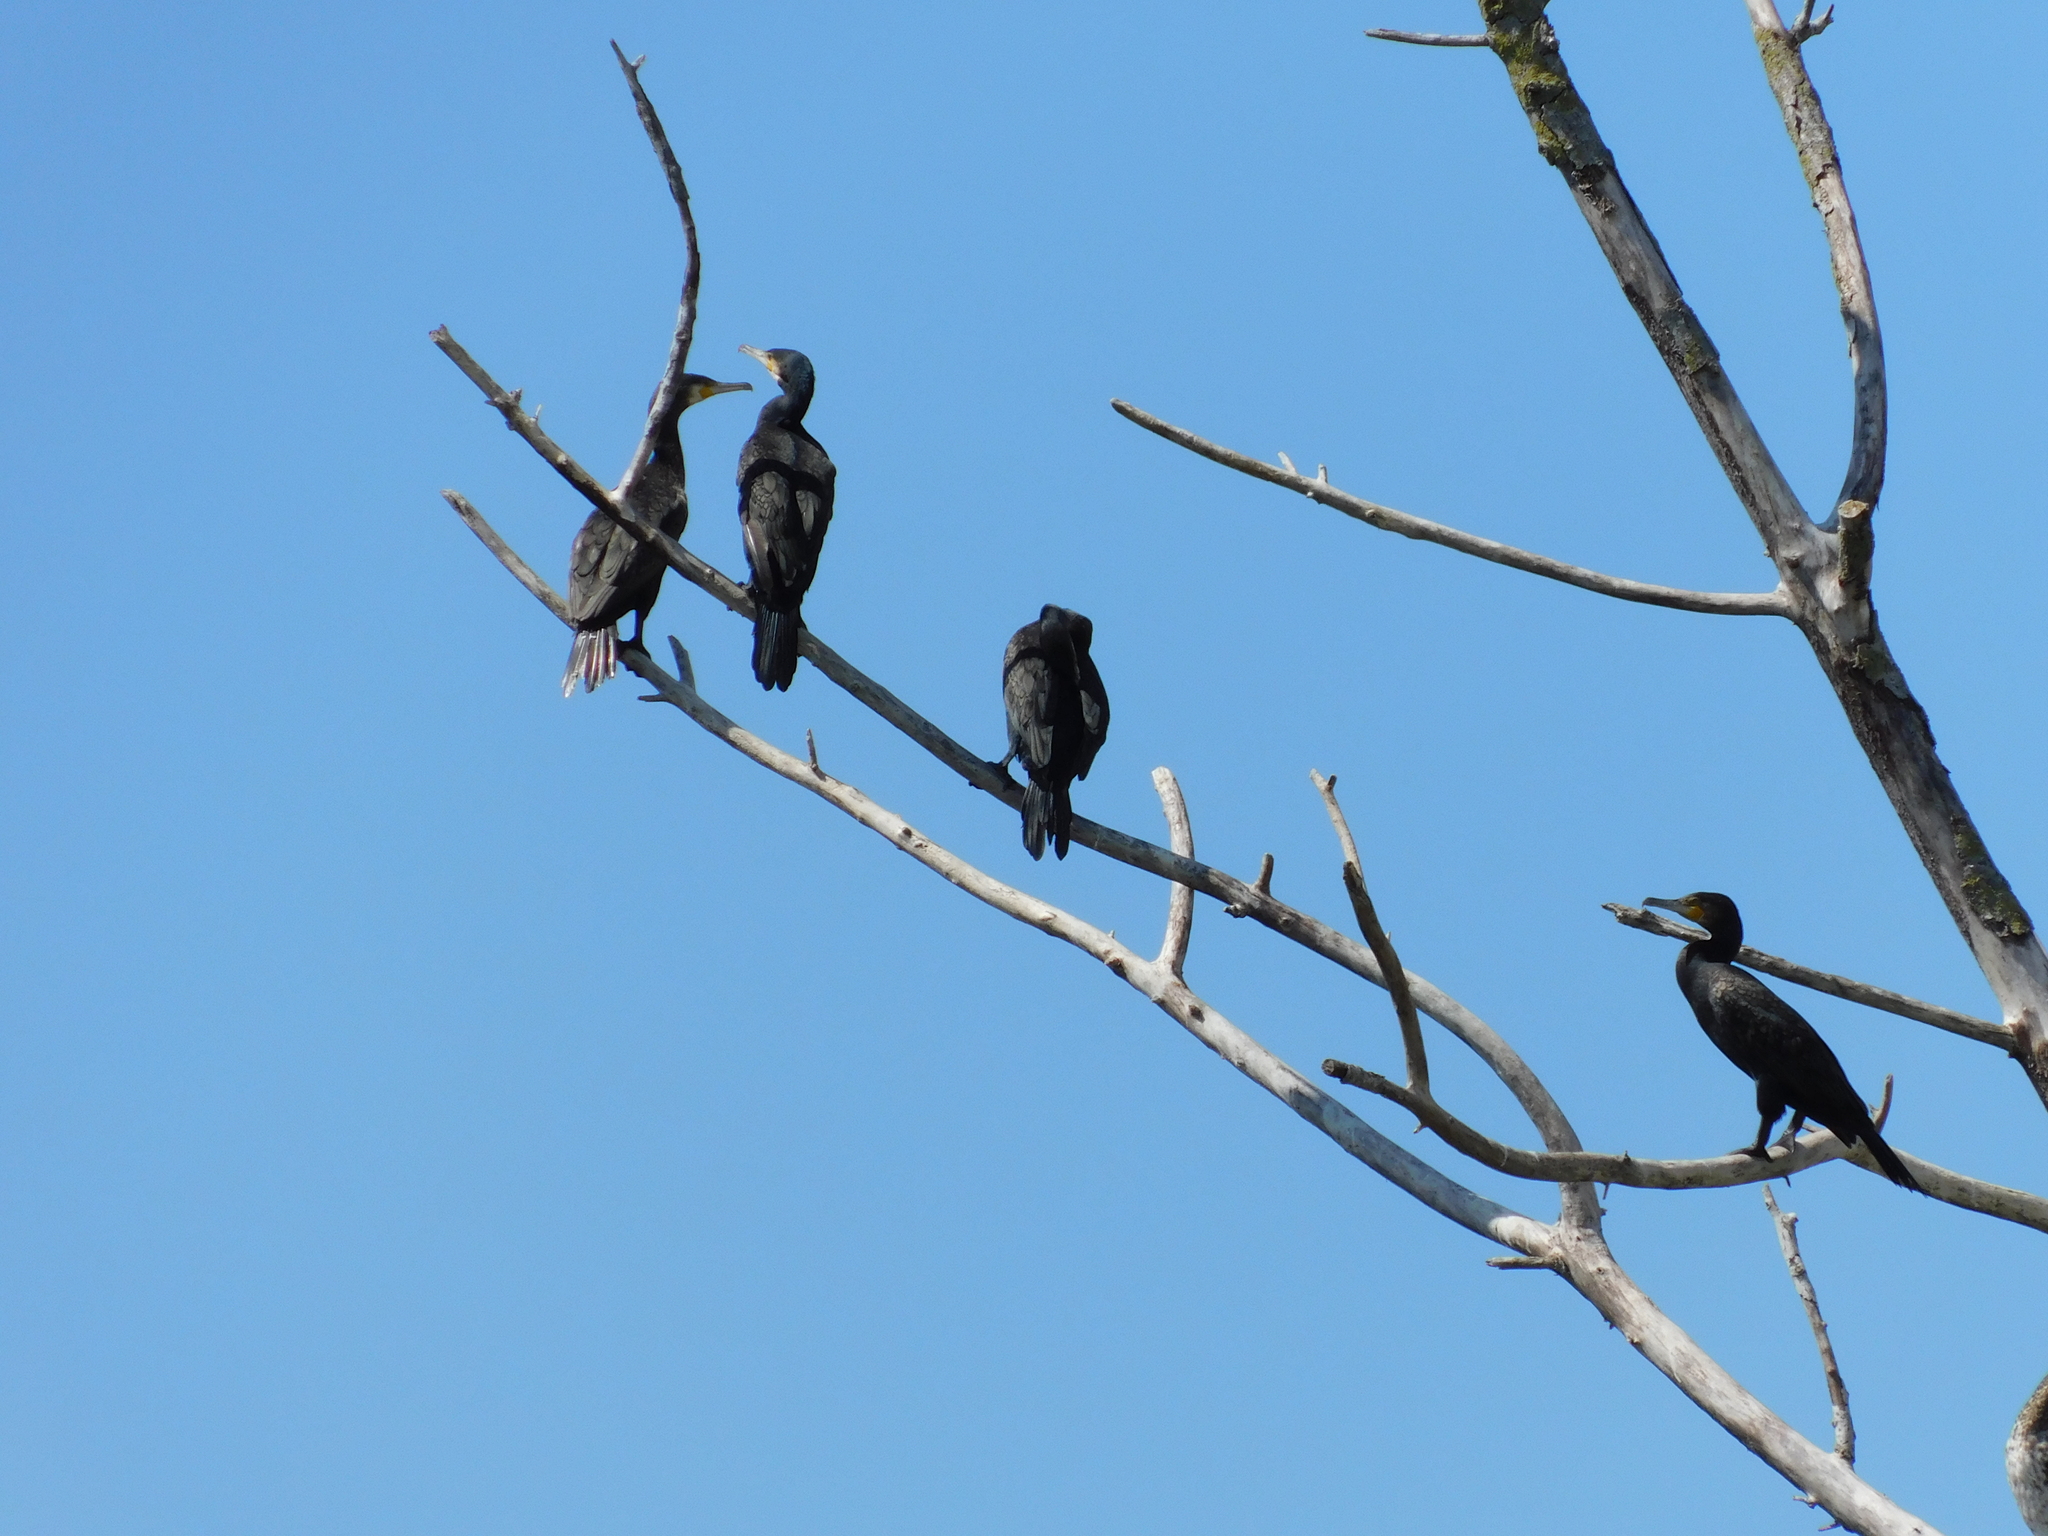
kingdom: Animalia
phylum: Chordata
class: Aves
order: Suliformes
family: Phalacrocoracidae
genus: Phalacrocorax
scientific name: Phalacrocorax carbo
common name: Great cormorant
